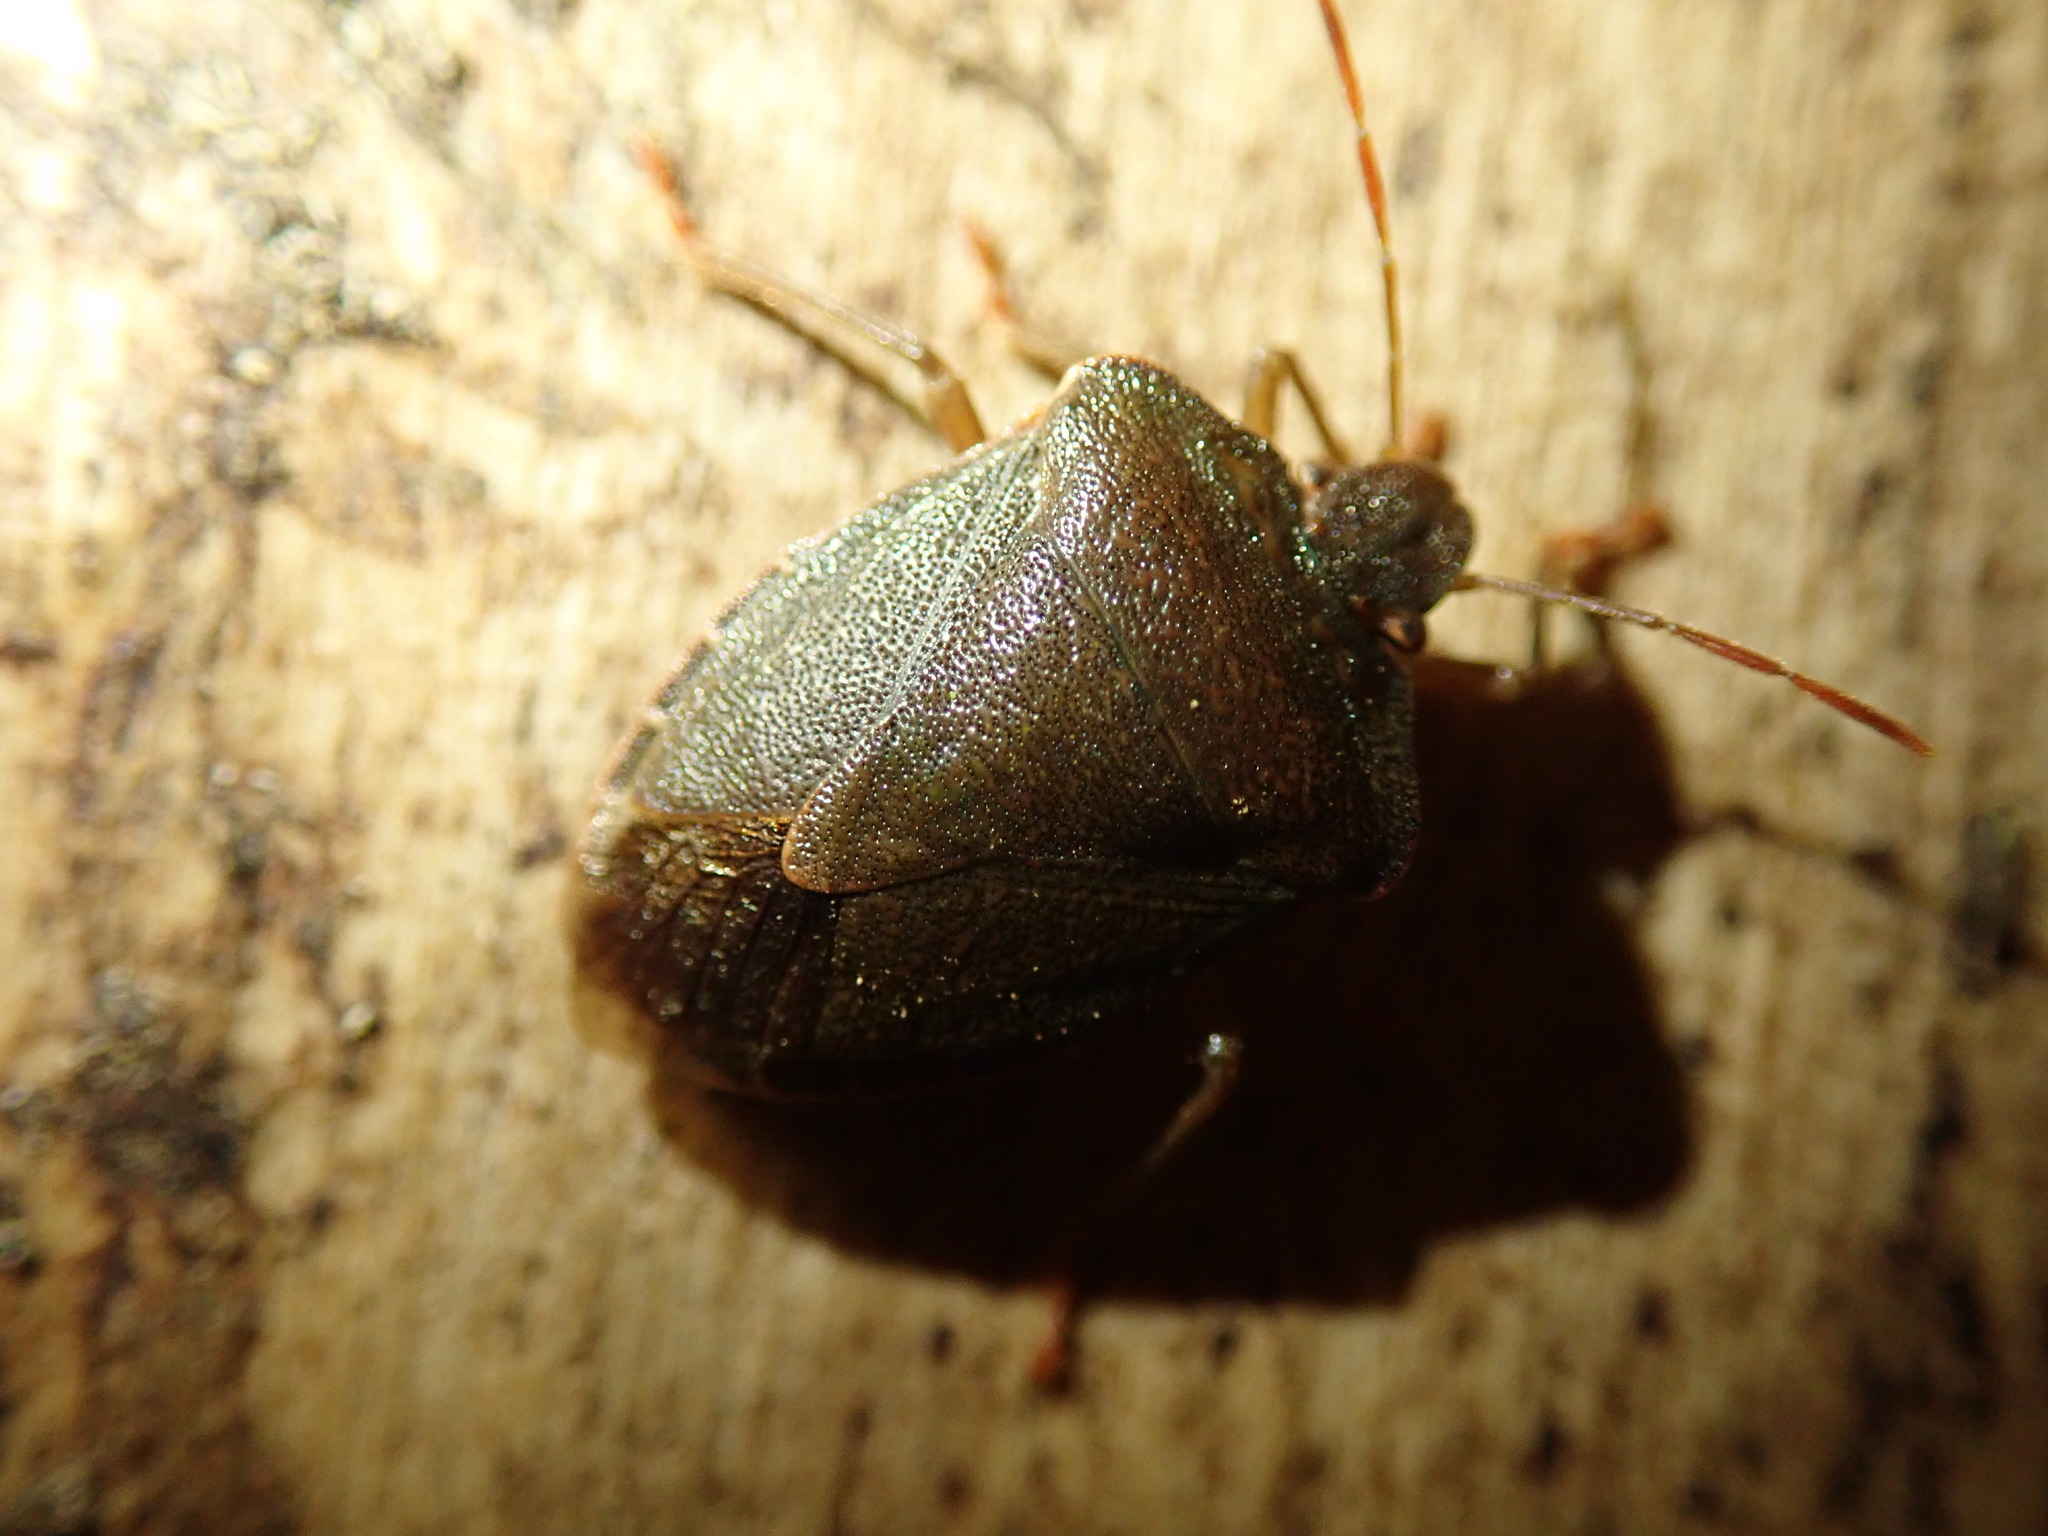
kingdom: Animalia
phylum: Arthropoda
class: Insecta
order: Hemiptera
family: Pentatomidae
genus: Palomena
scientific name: Palomena prasina
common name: Green shieldbug
